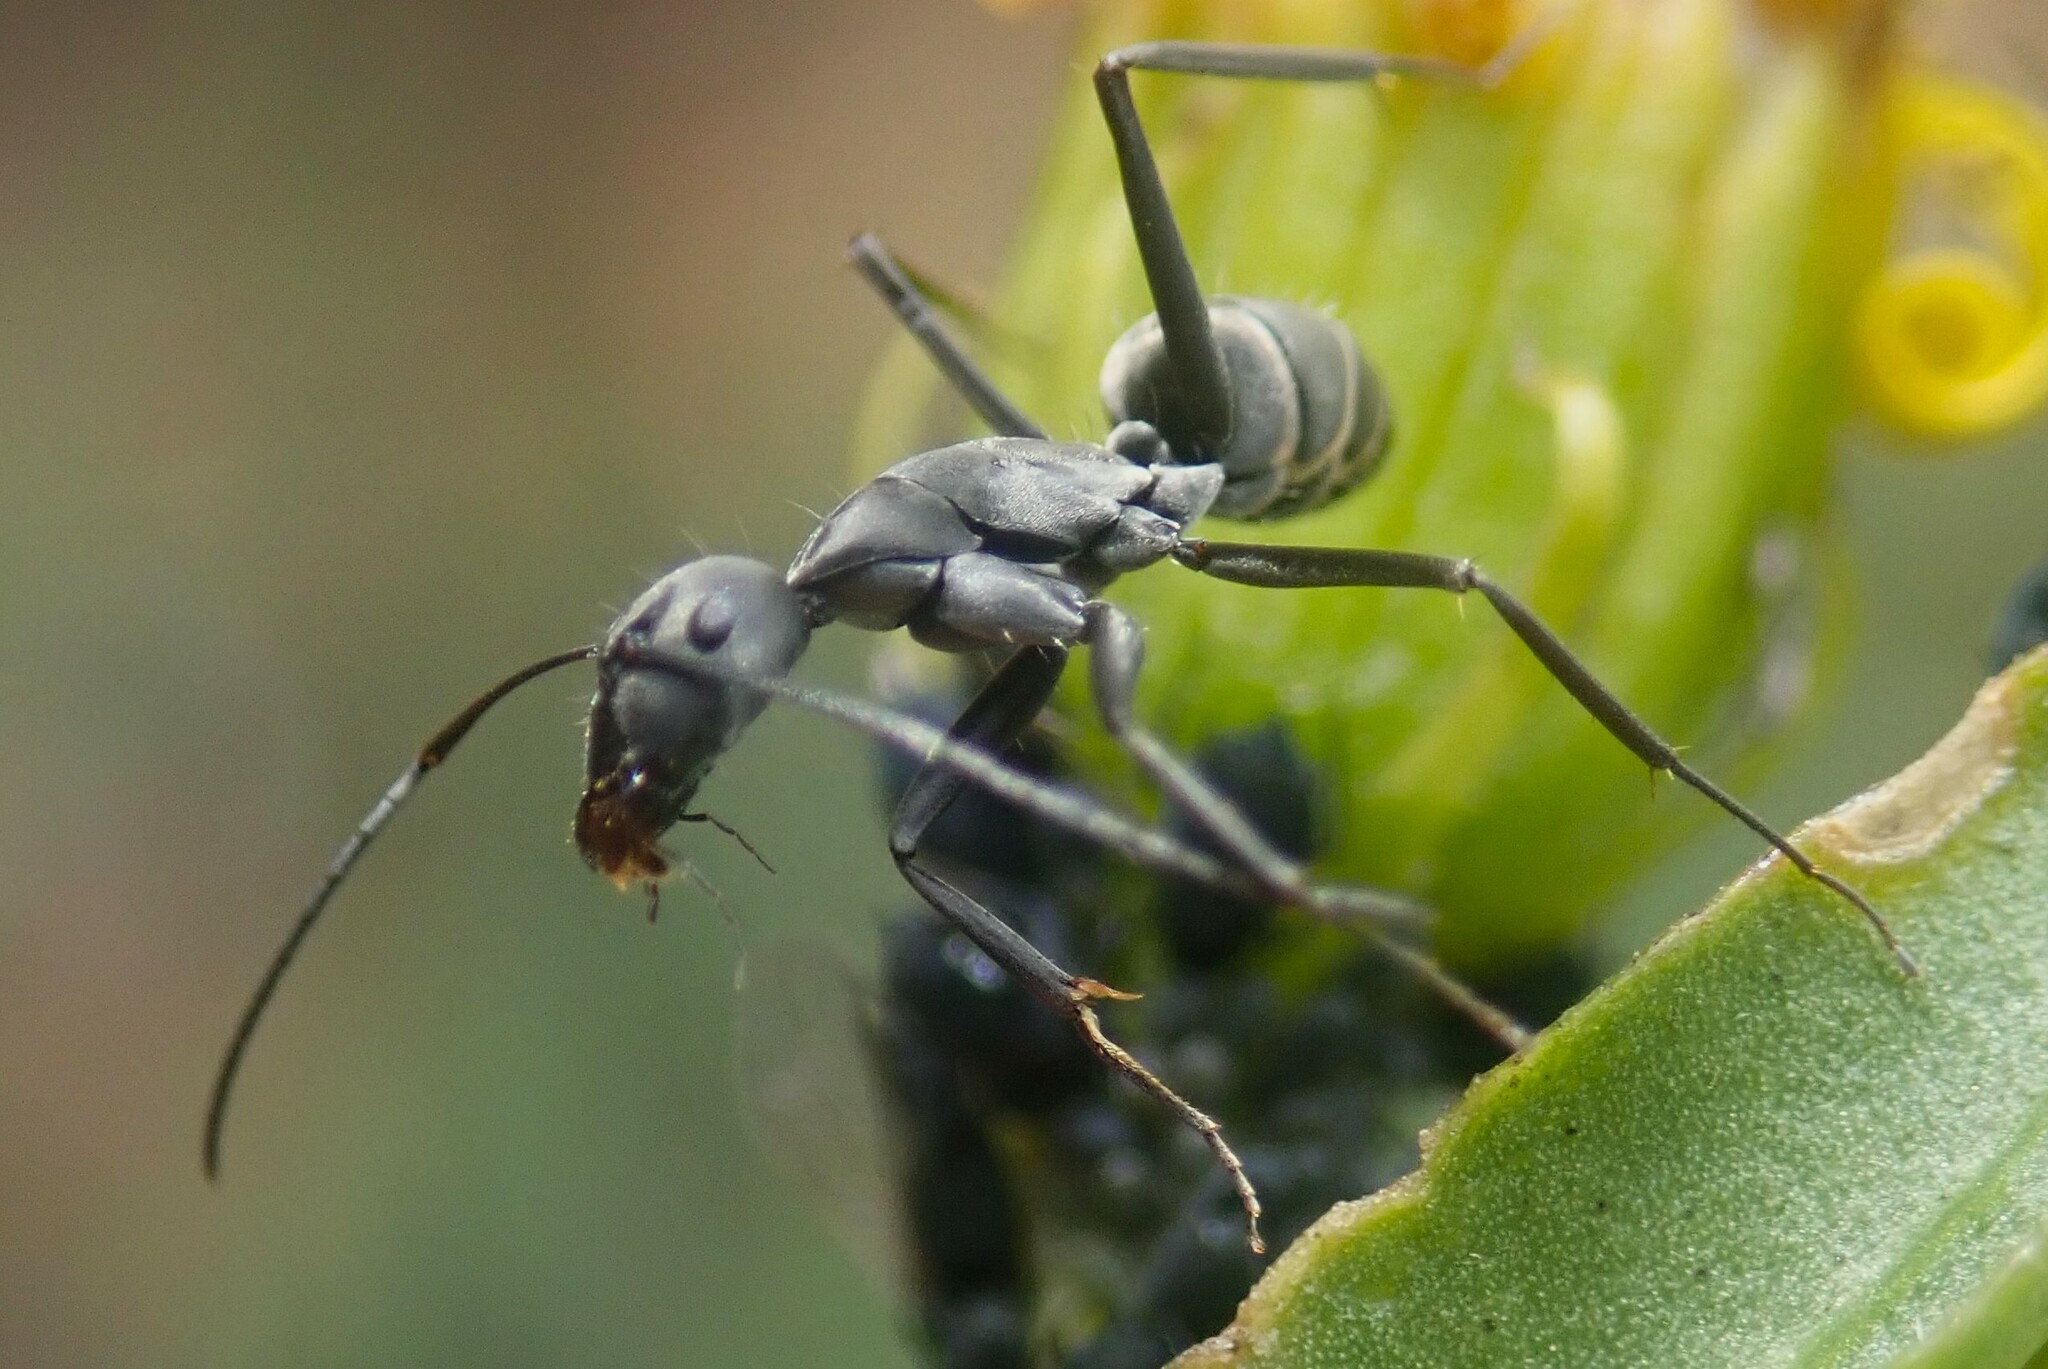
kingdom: Animalia
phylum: Arthropoda
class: Insecta
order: Hymenoptera
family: Formicidae
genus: Camponotus
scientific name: Camponotus eugeniae
